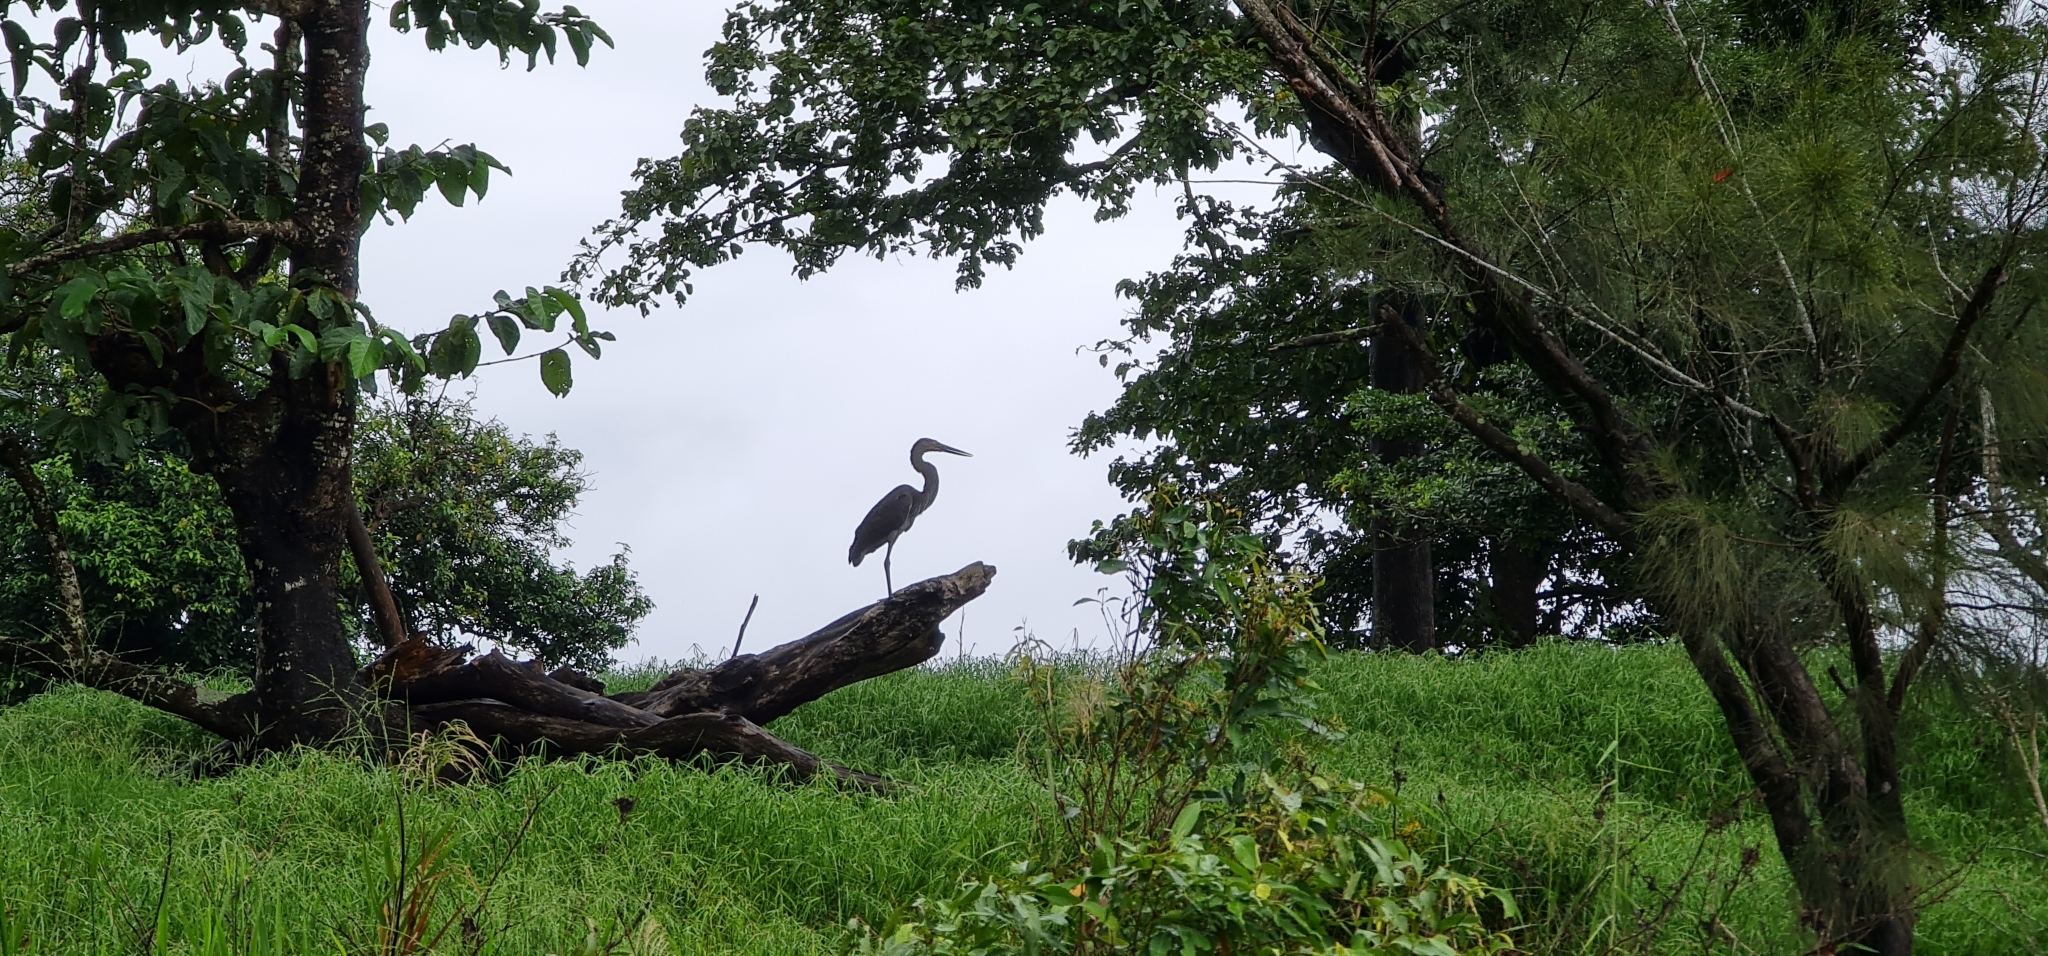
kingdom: Animalia
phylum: Chordata
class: Aves
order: Pelecaniformes
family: Ardeidae
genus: Ardea
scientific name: Ardea sumatrana
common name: Great-billed heron
